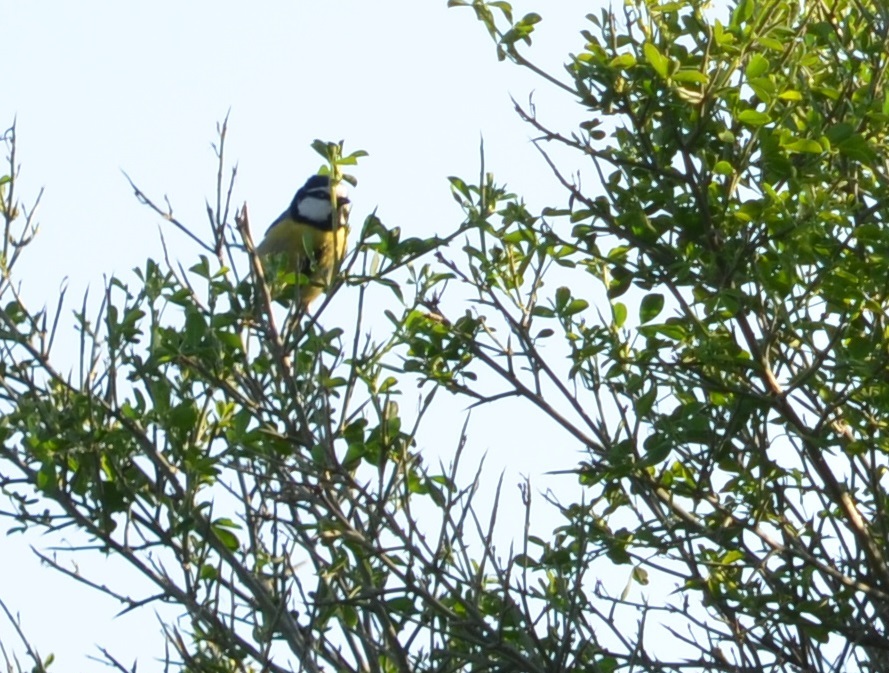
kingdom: Animalia
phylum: Chordata
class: Aves
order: Passeriformes
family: Paridae
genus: Cyanistes
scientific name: Cyanistes teneriffae
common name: African blue tit
